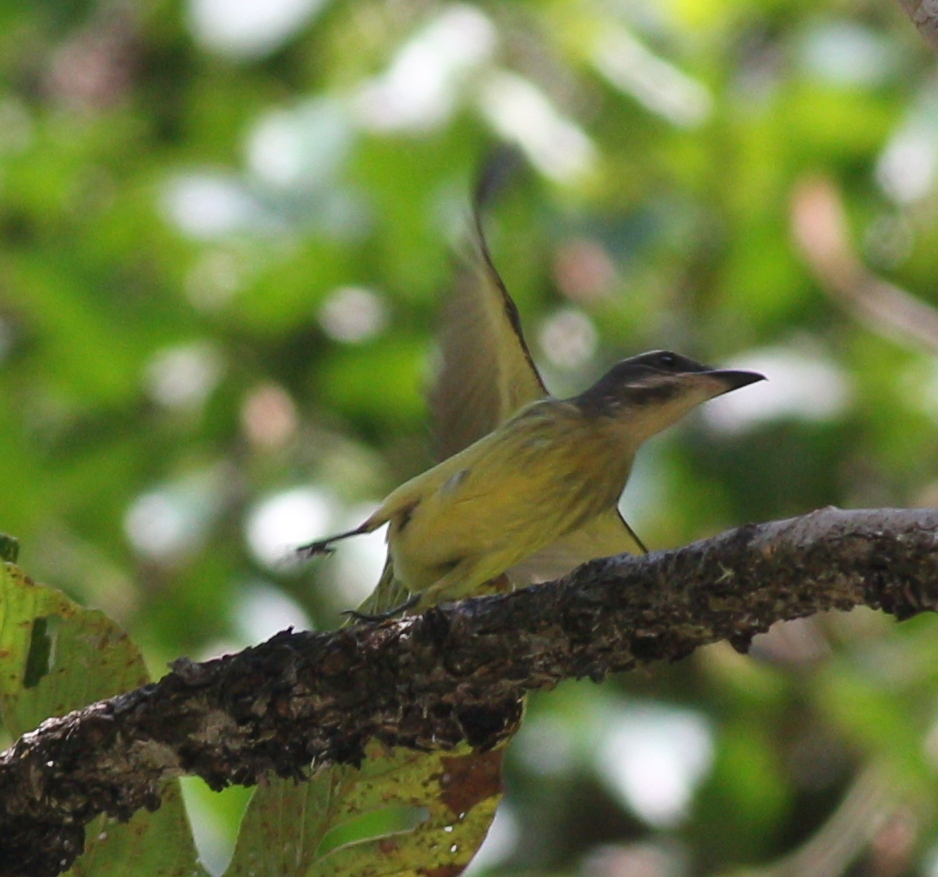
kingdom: Animalia
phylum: Chordata
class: Aves
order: Passeriformes
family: Tyrannidae
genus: Myiodynastes
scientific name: Myiodynastes chrysocephalus
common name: Golden-crowned flycatcher
